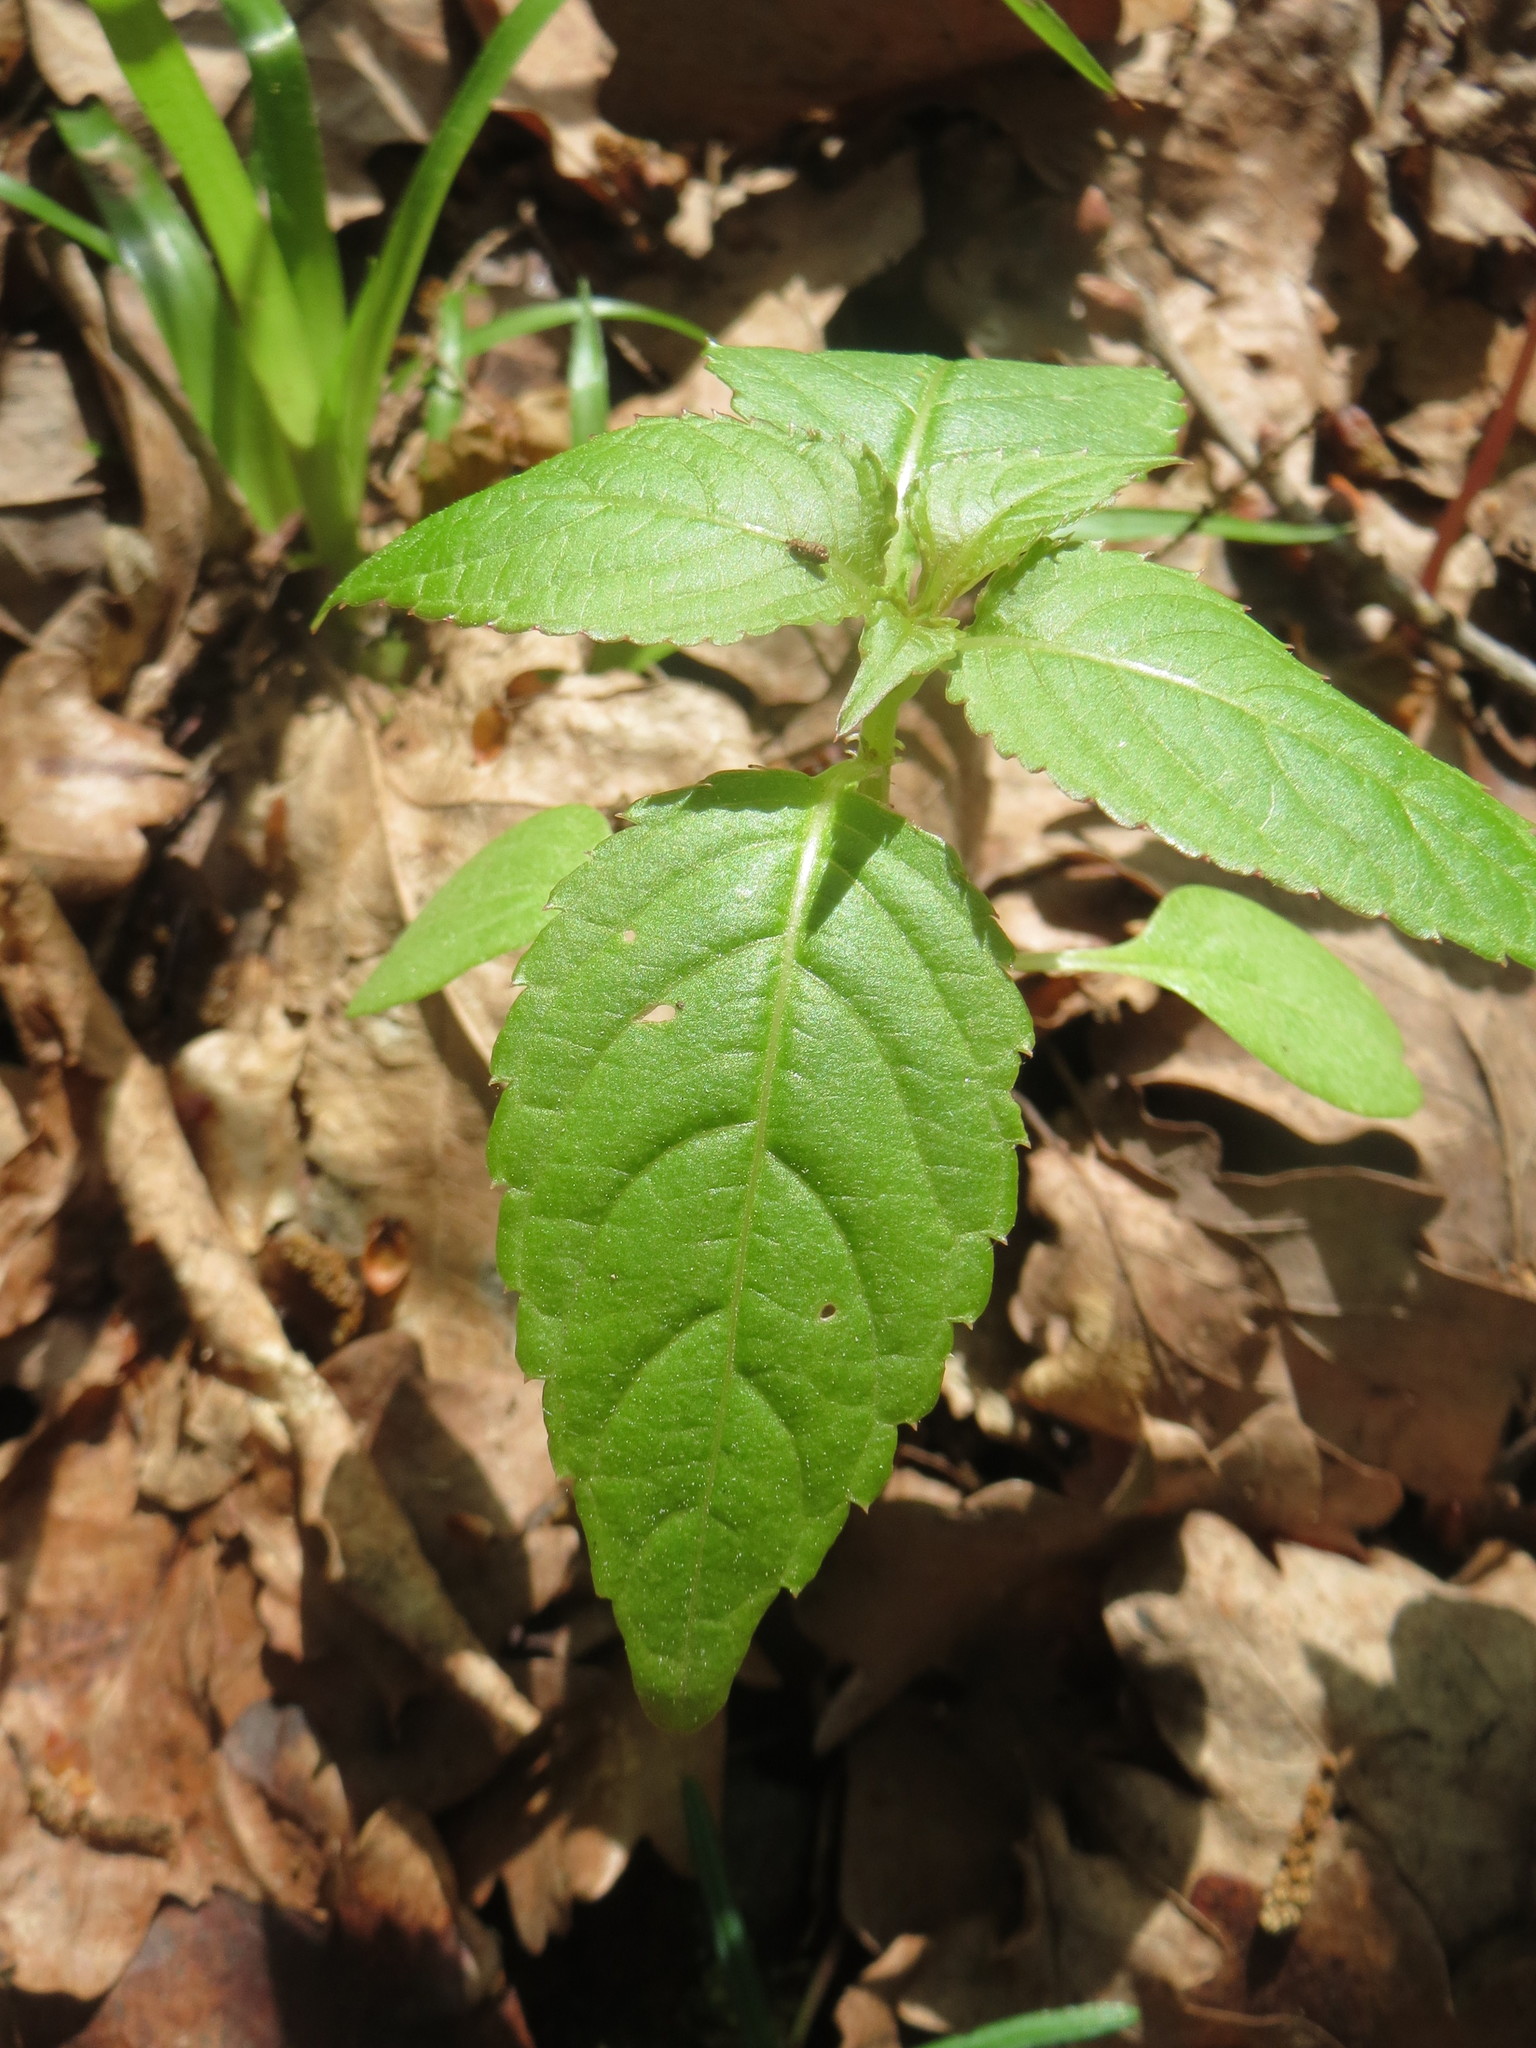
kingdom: Plantae
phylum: Tracheophyta
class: Magnoliopsida
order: Ericales
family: Balsaminaceae
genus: Impatiens
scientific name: Impatiens parviflora
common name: Small balsam
